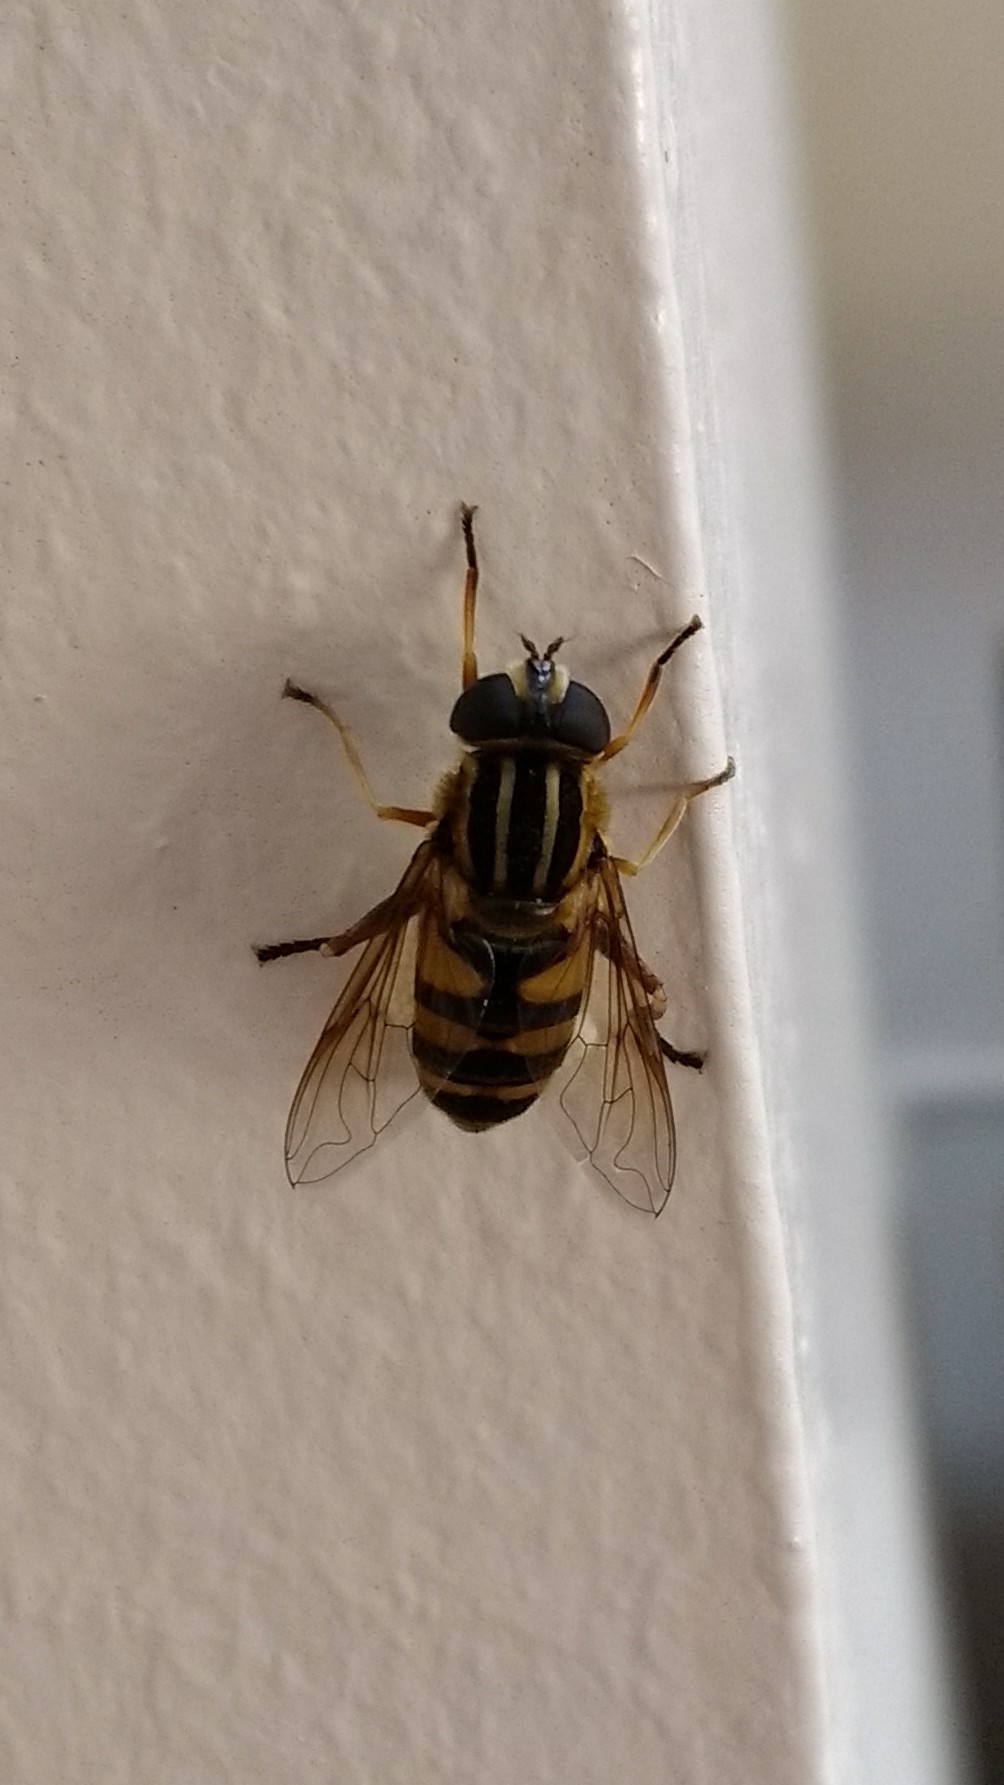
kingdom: Animalia
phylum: Arthropoda
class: Insecta
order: Diptera
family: Syrphidae
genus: Helophilus
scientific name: Helophilus fasciatus
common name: Narrow-headed marsh fly
